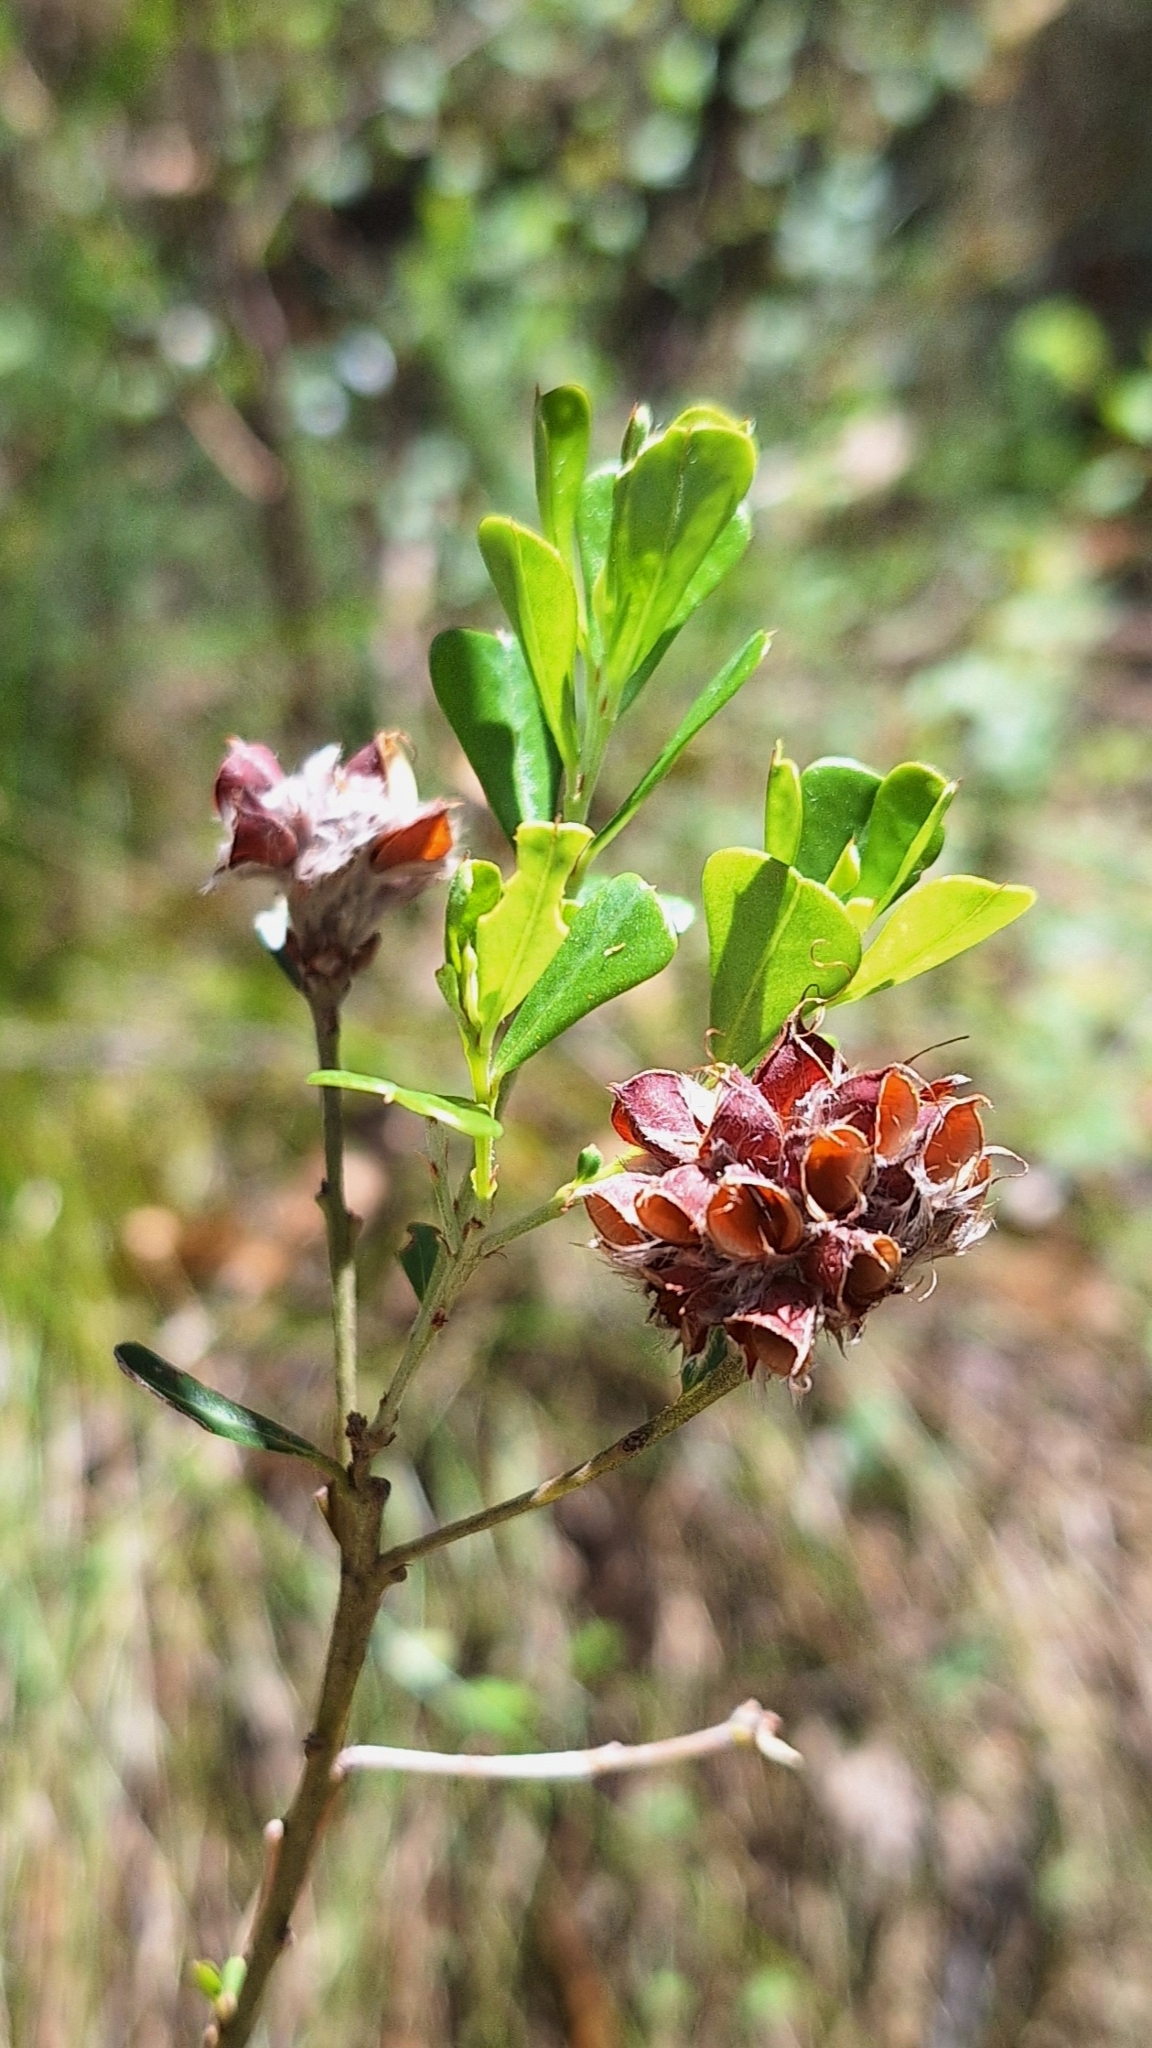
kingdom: Plantae
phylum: Tracheophyta
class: Magnoliopsida
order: Fabales
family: Fabaceae
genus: Pultenaea
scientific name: Pultenaea daphnoides
